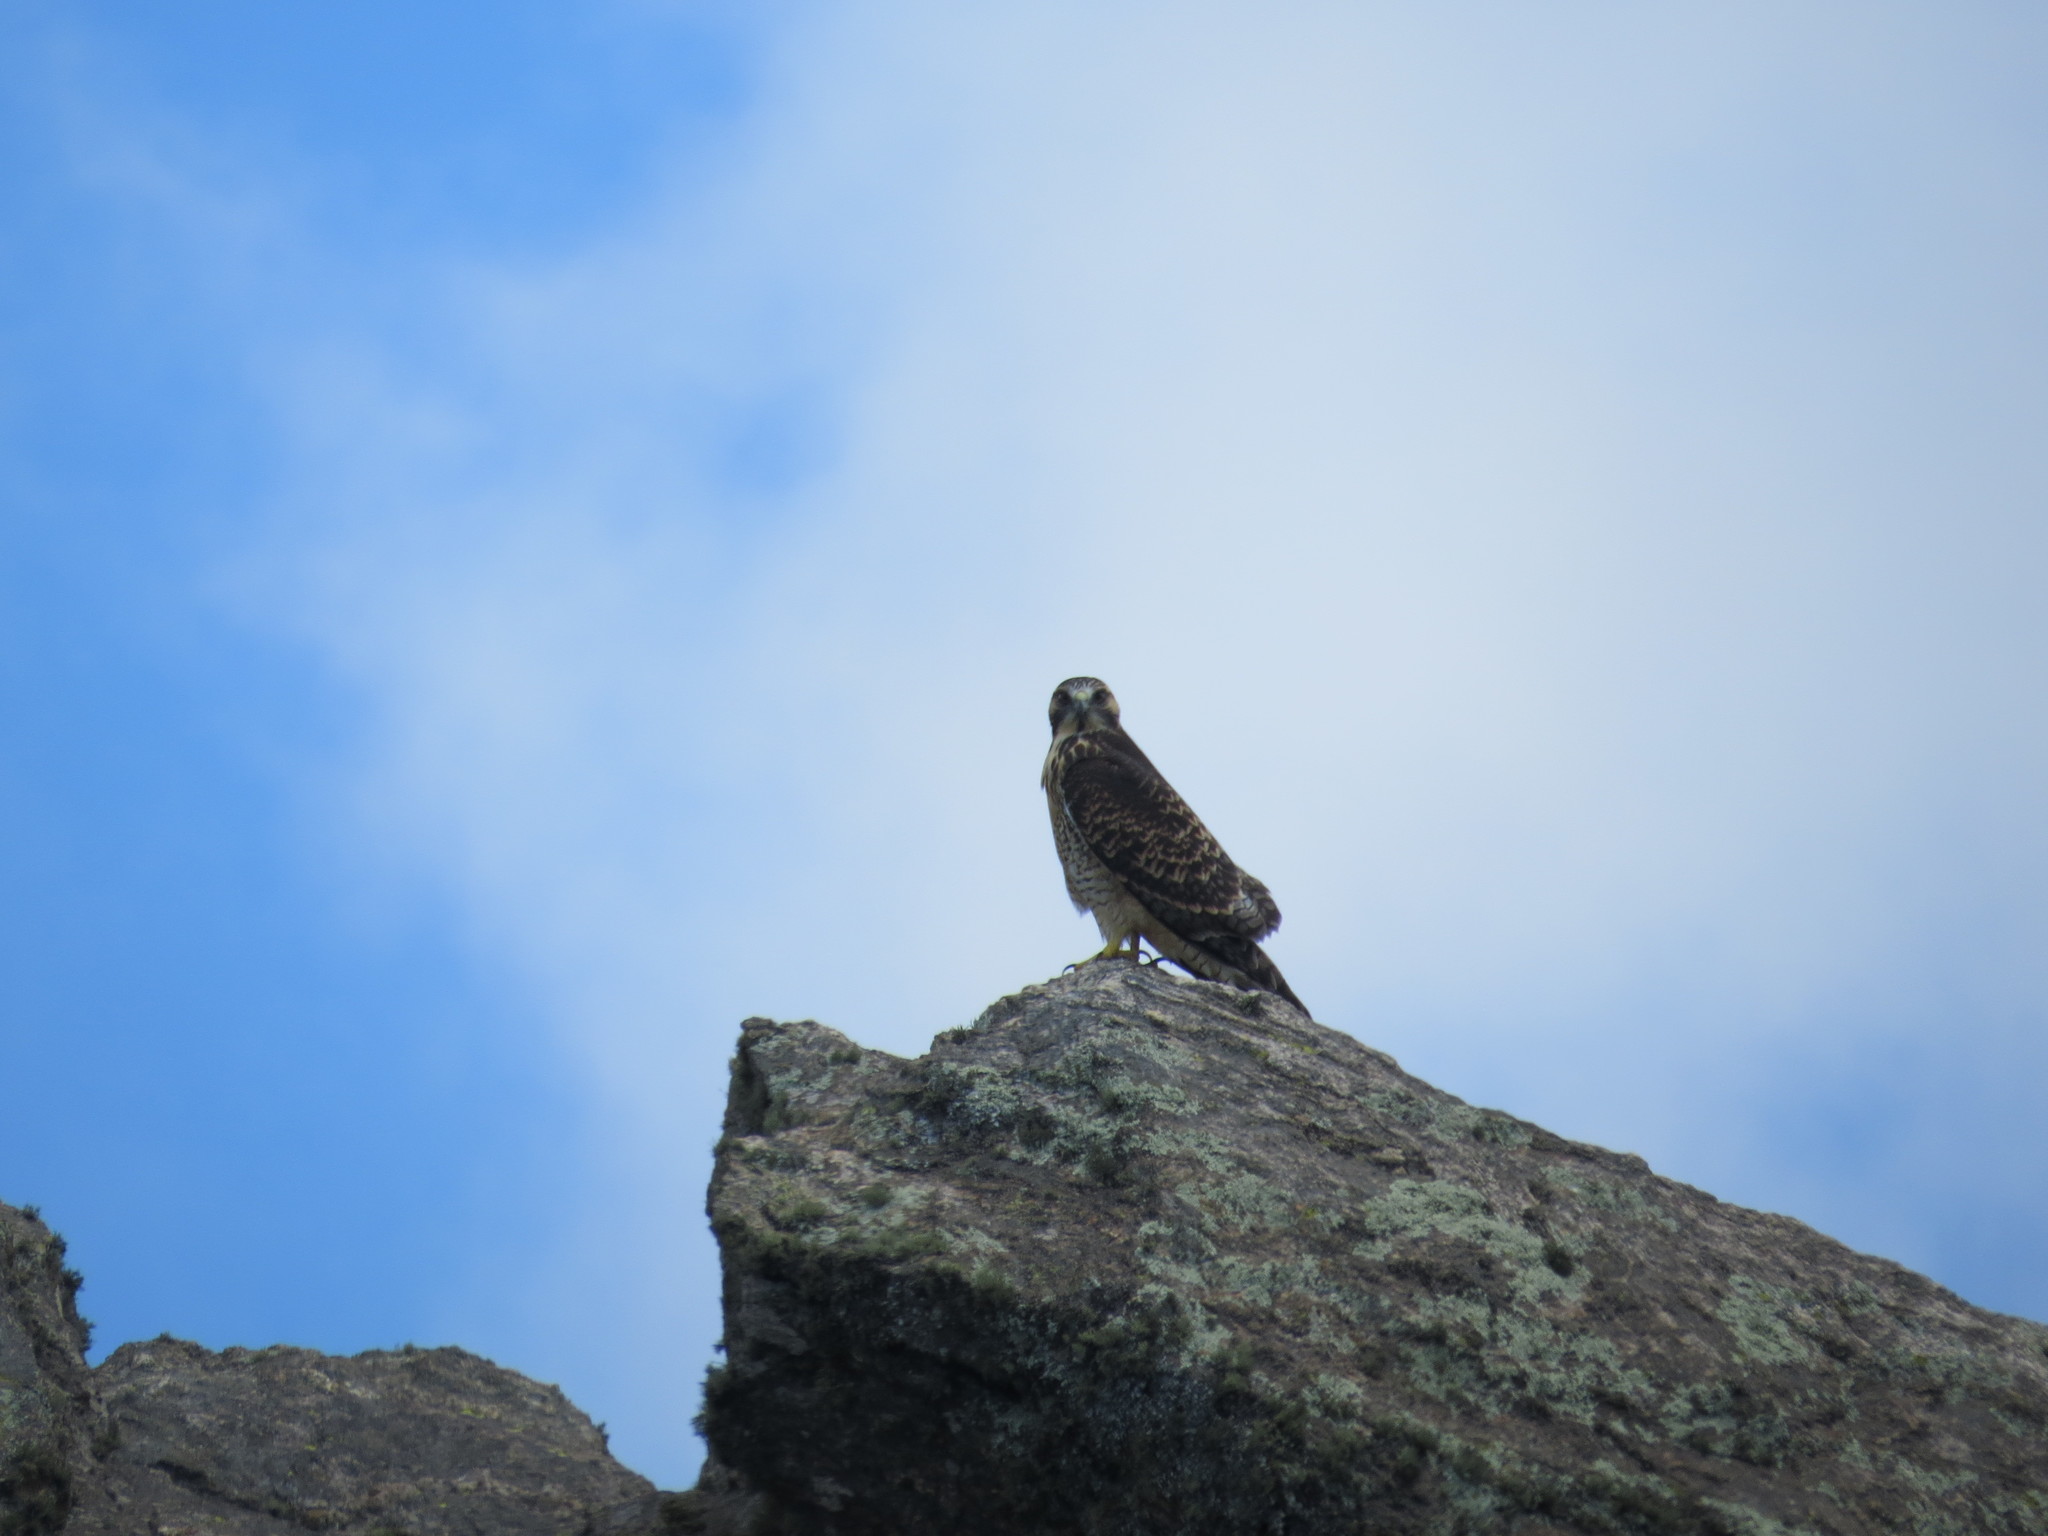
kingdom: Animalia
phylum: Chordata
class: Aves
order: Accipitriformes
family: Accipitridae
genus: Buteo
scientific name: Buteo polyosoma
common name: Variable hawk
